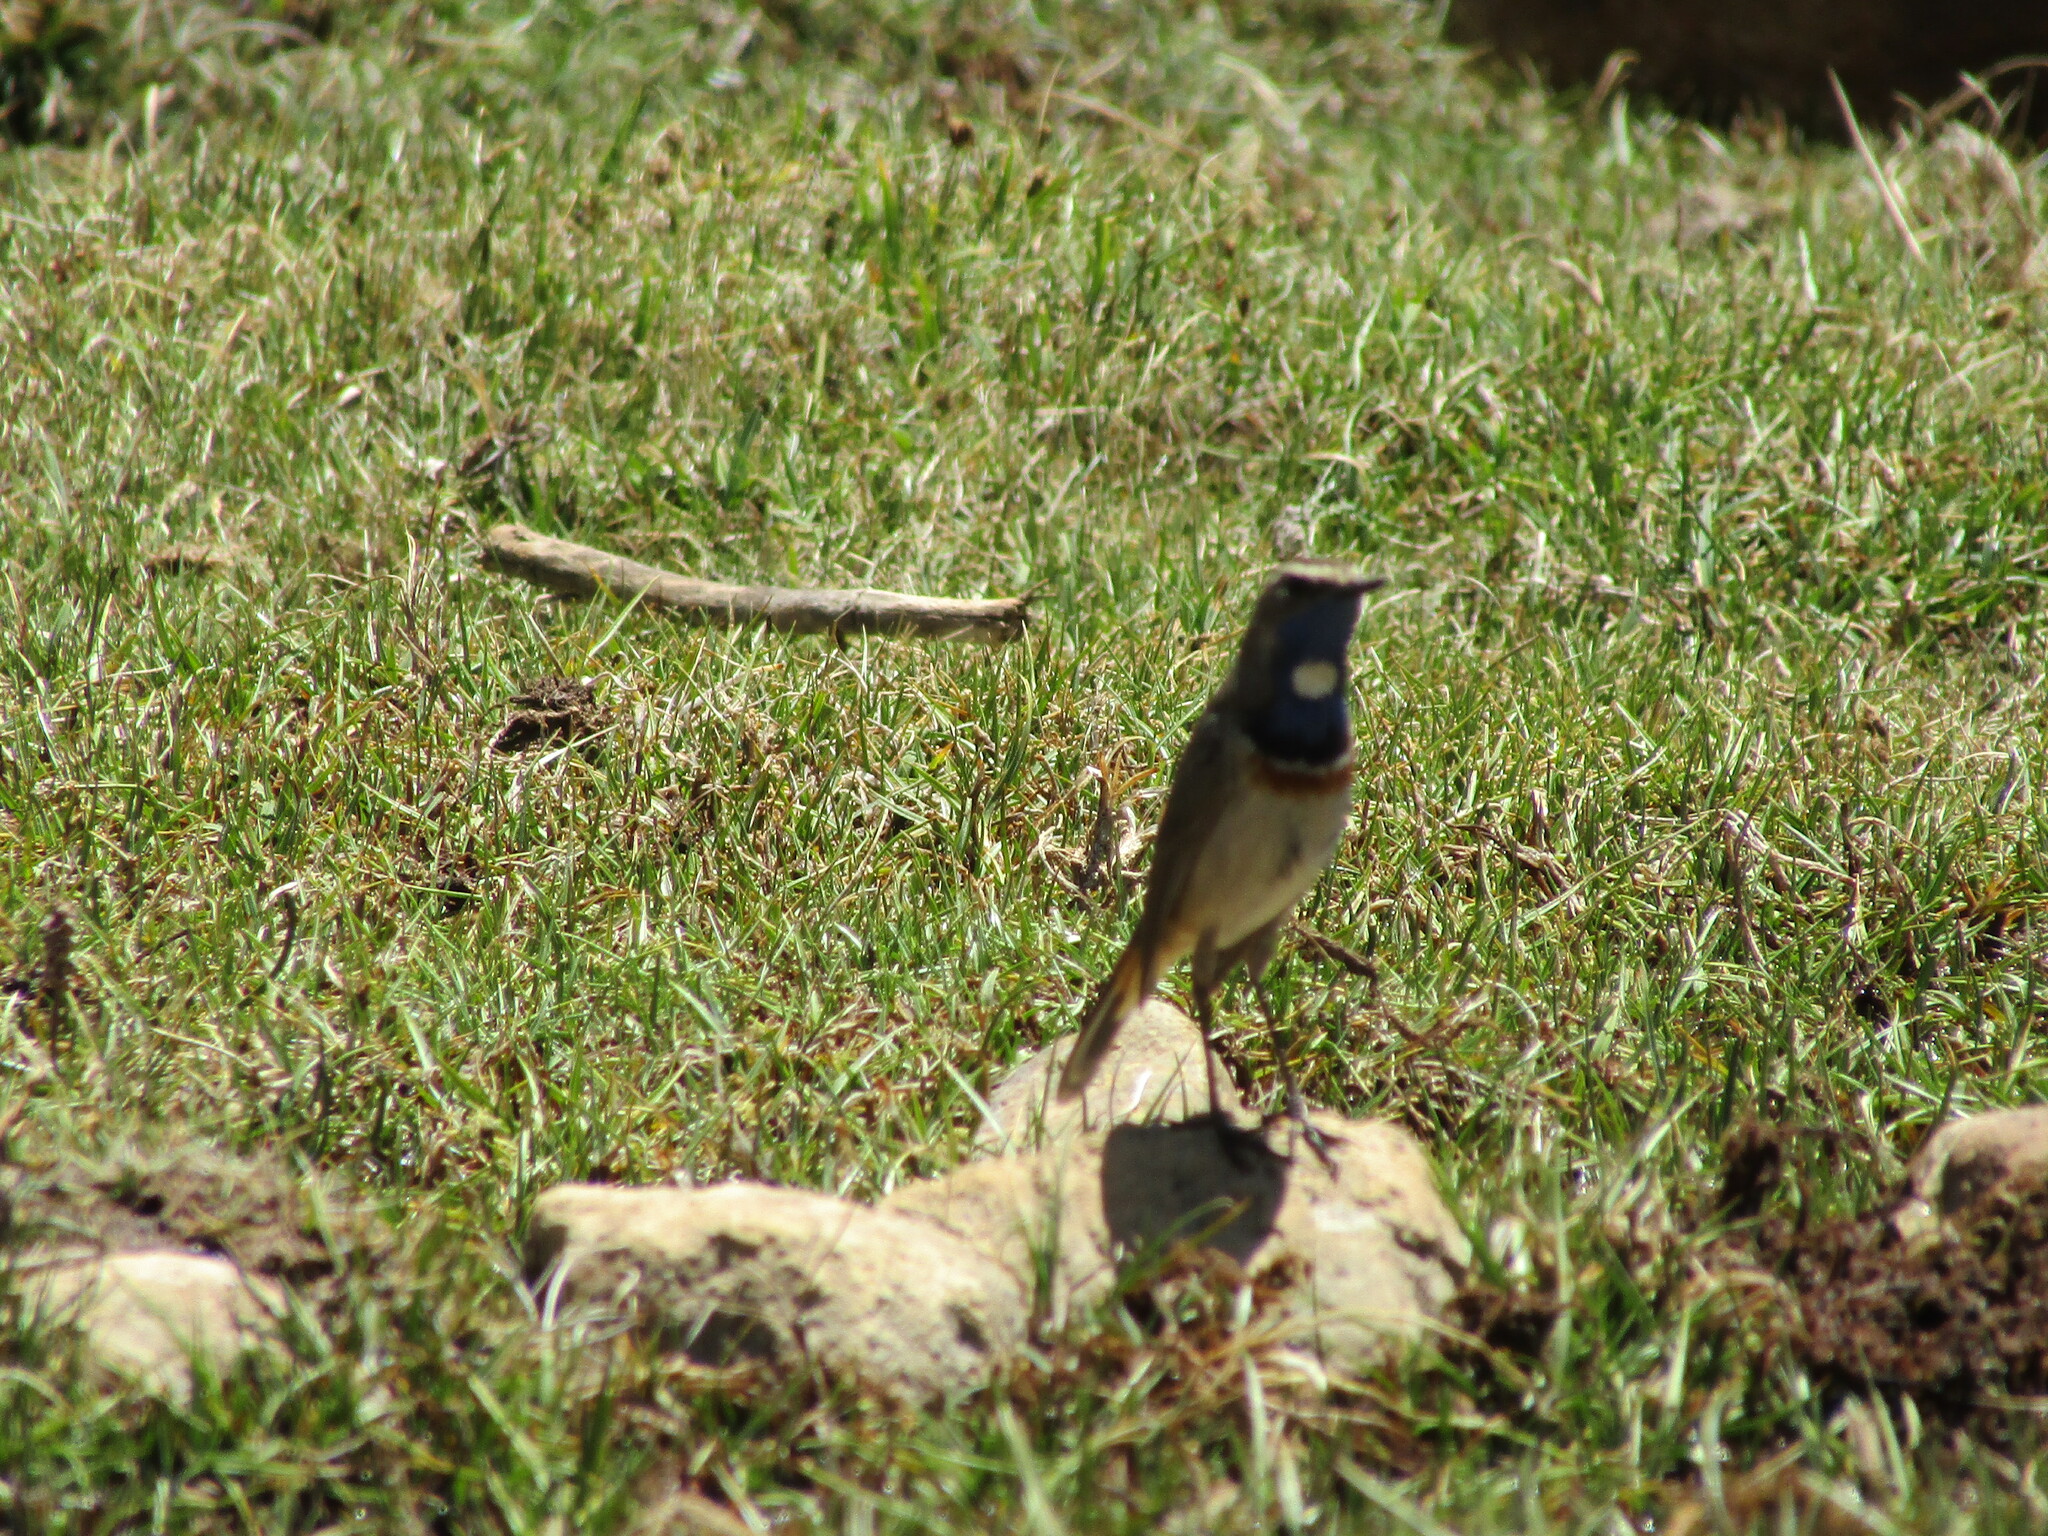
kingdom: Animalia
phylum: Chordata
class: Aves
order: Passeriformes
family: Muscicapidae
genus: Luscinia
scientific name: Luscinia svecica
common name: Bluethroat
